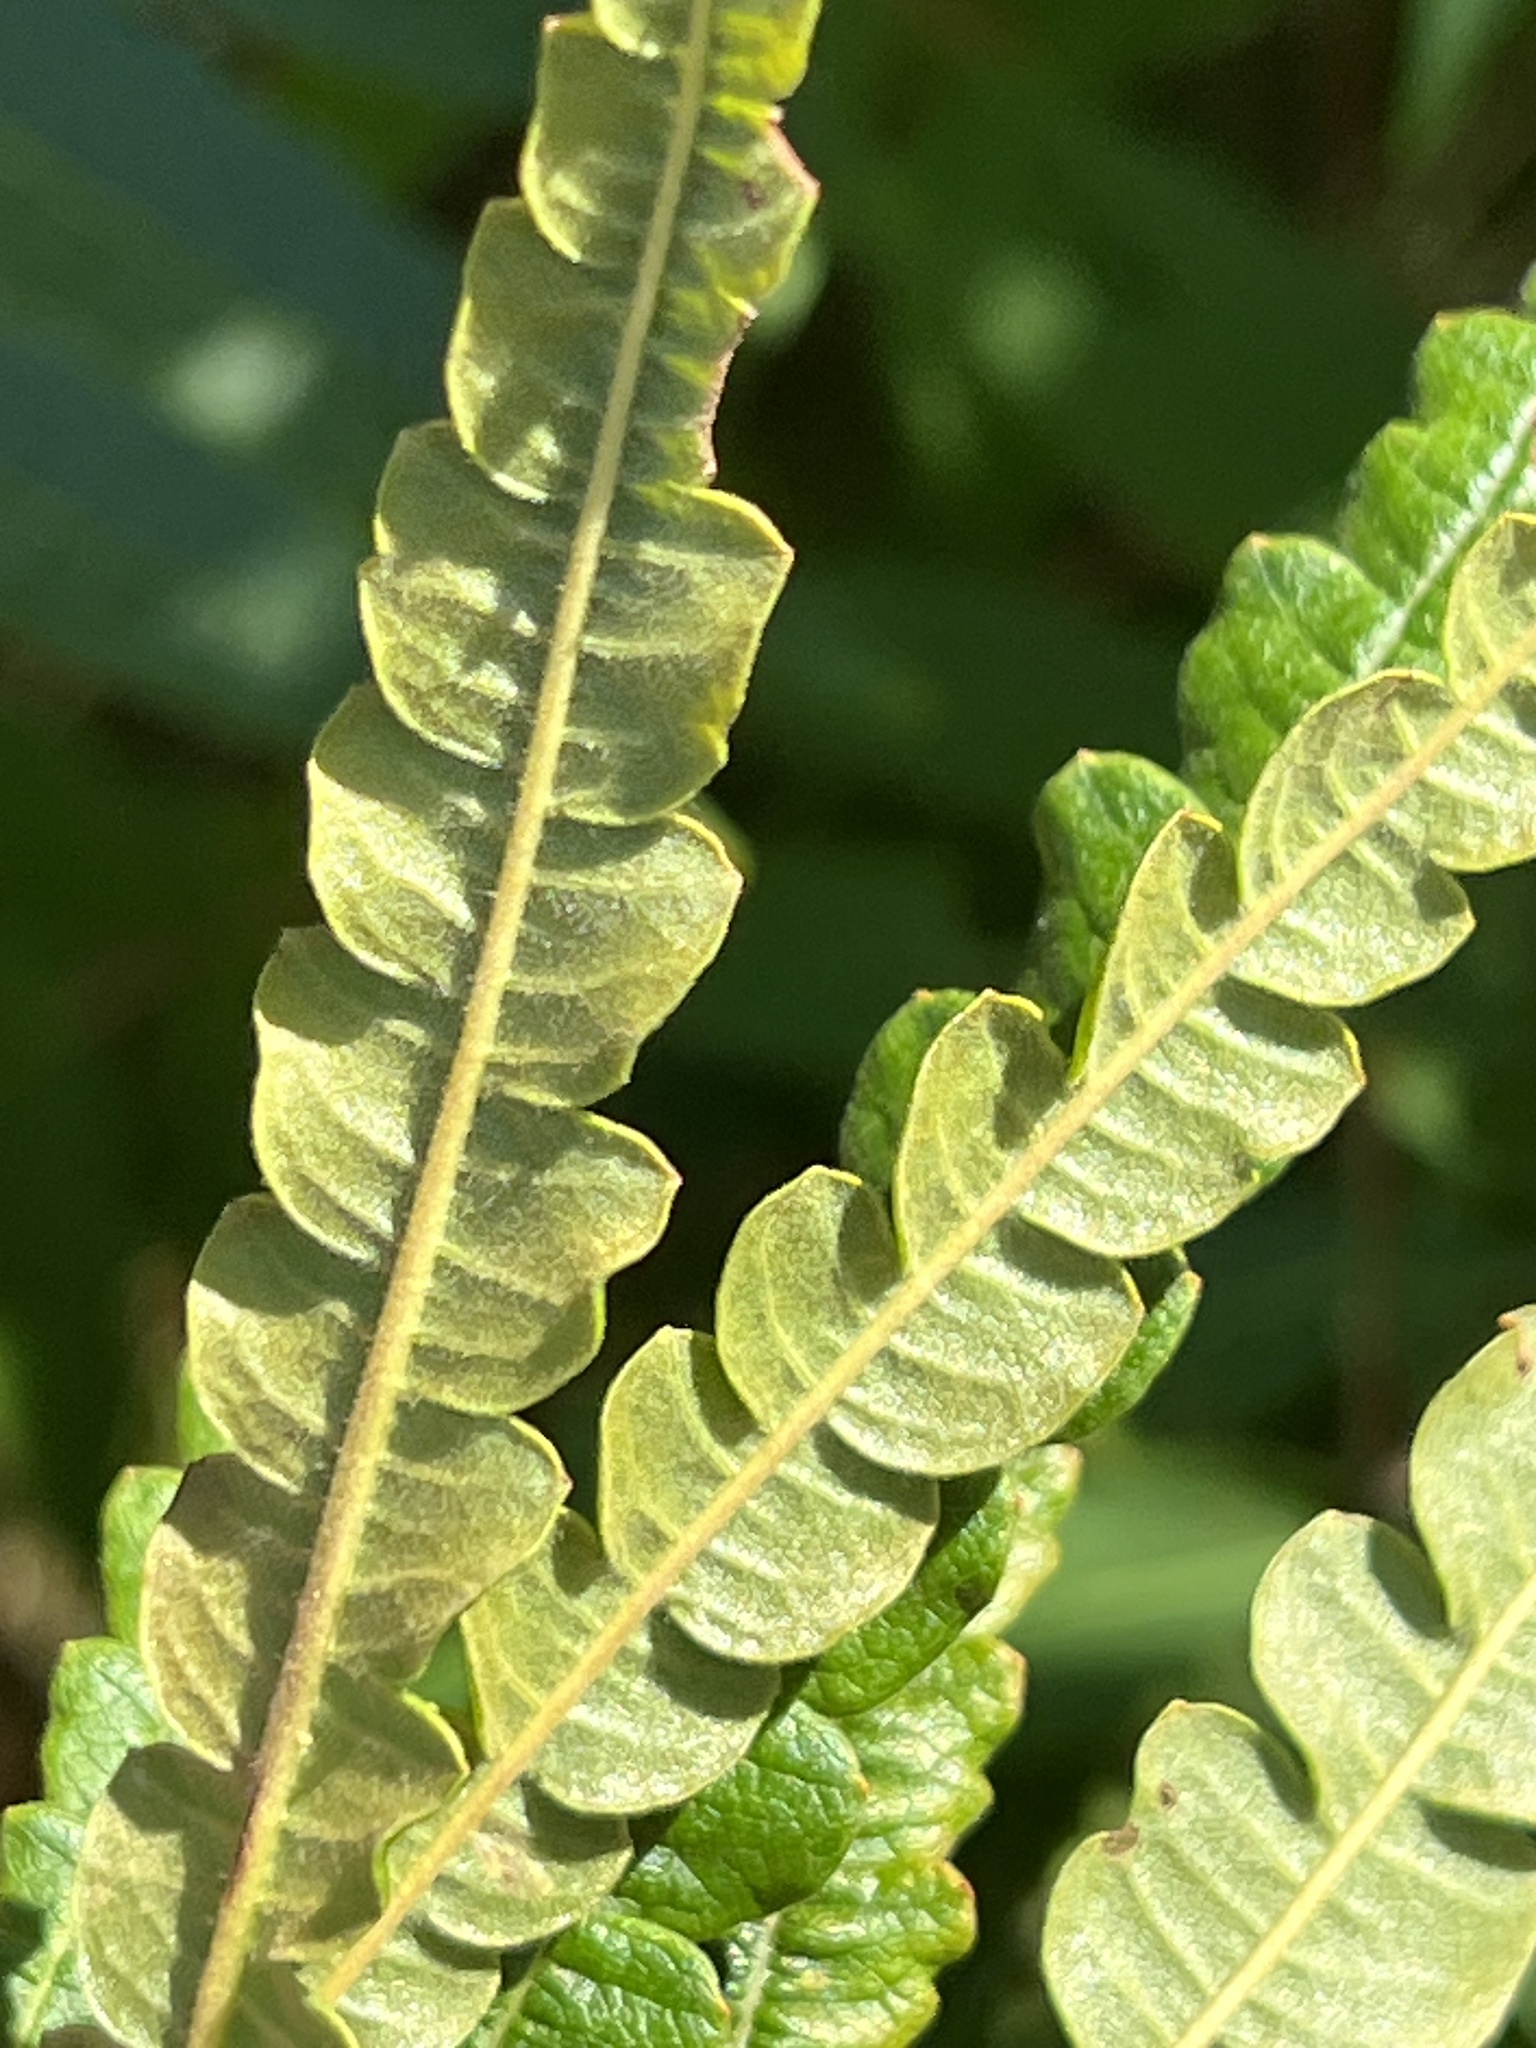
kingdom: Plantae
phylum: Tracheophyta
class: Magnoliopsida
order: Fagales
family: Myricaceae
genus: Comptonia
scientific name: Comptonia peregrina
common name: Sweet-fern
